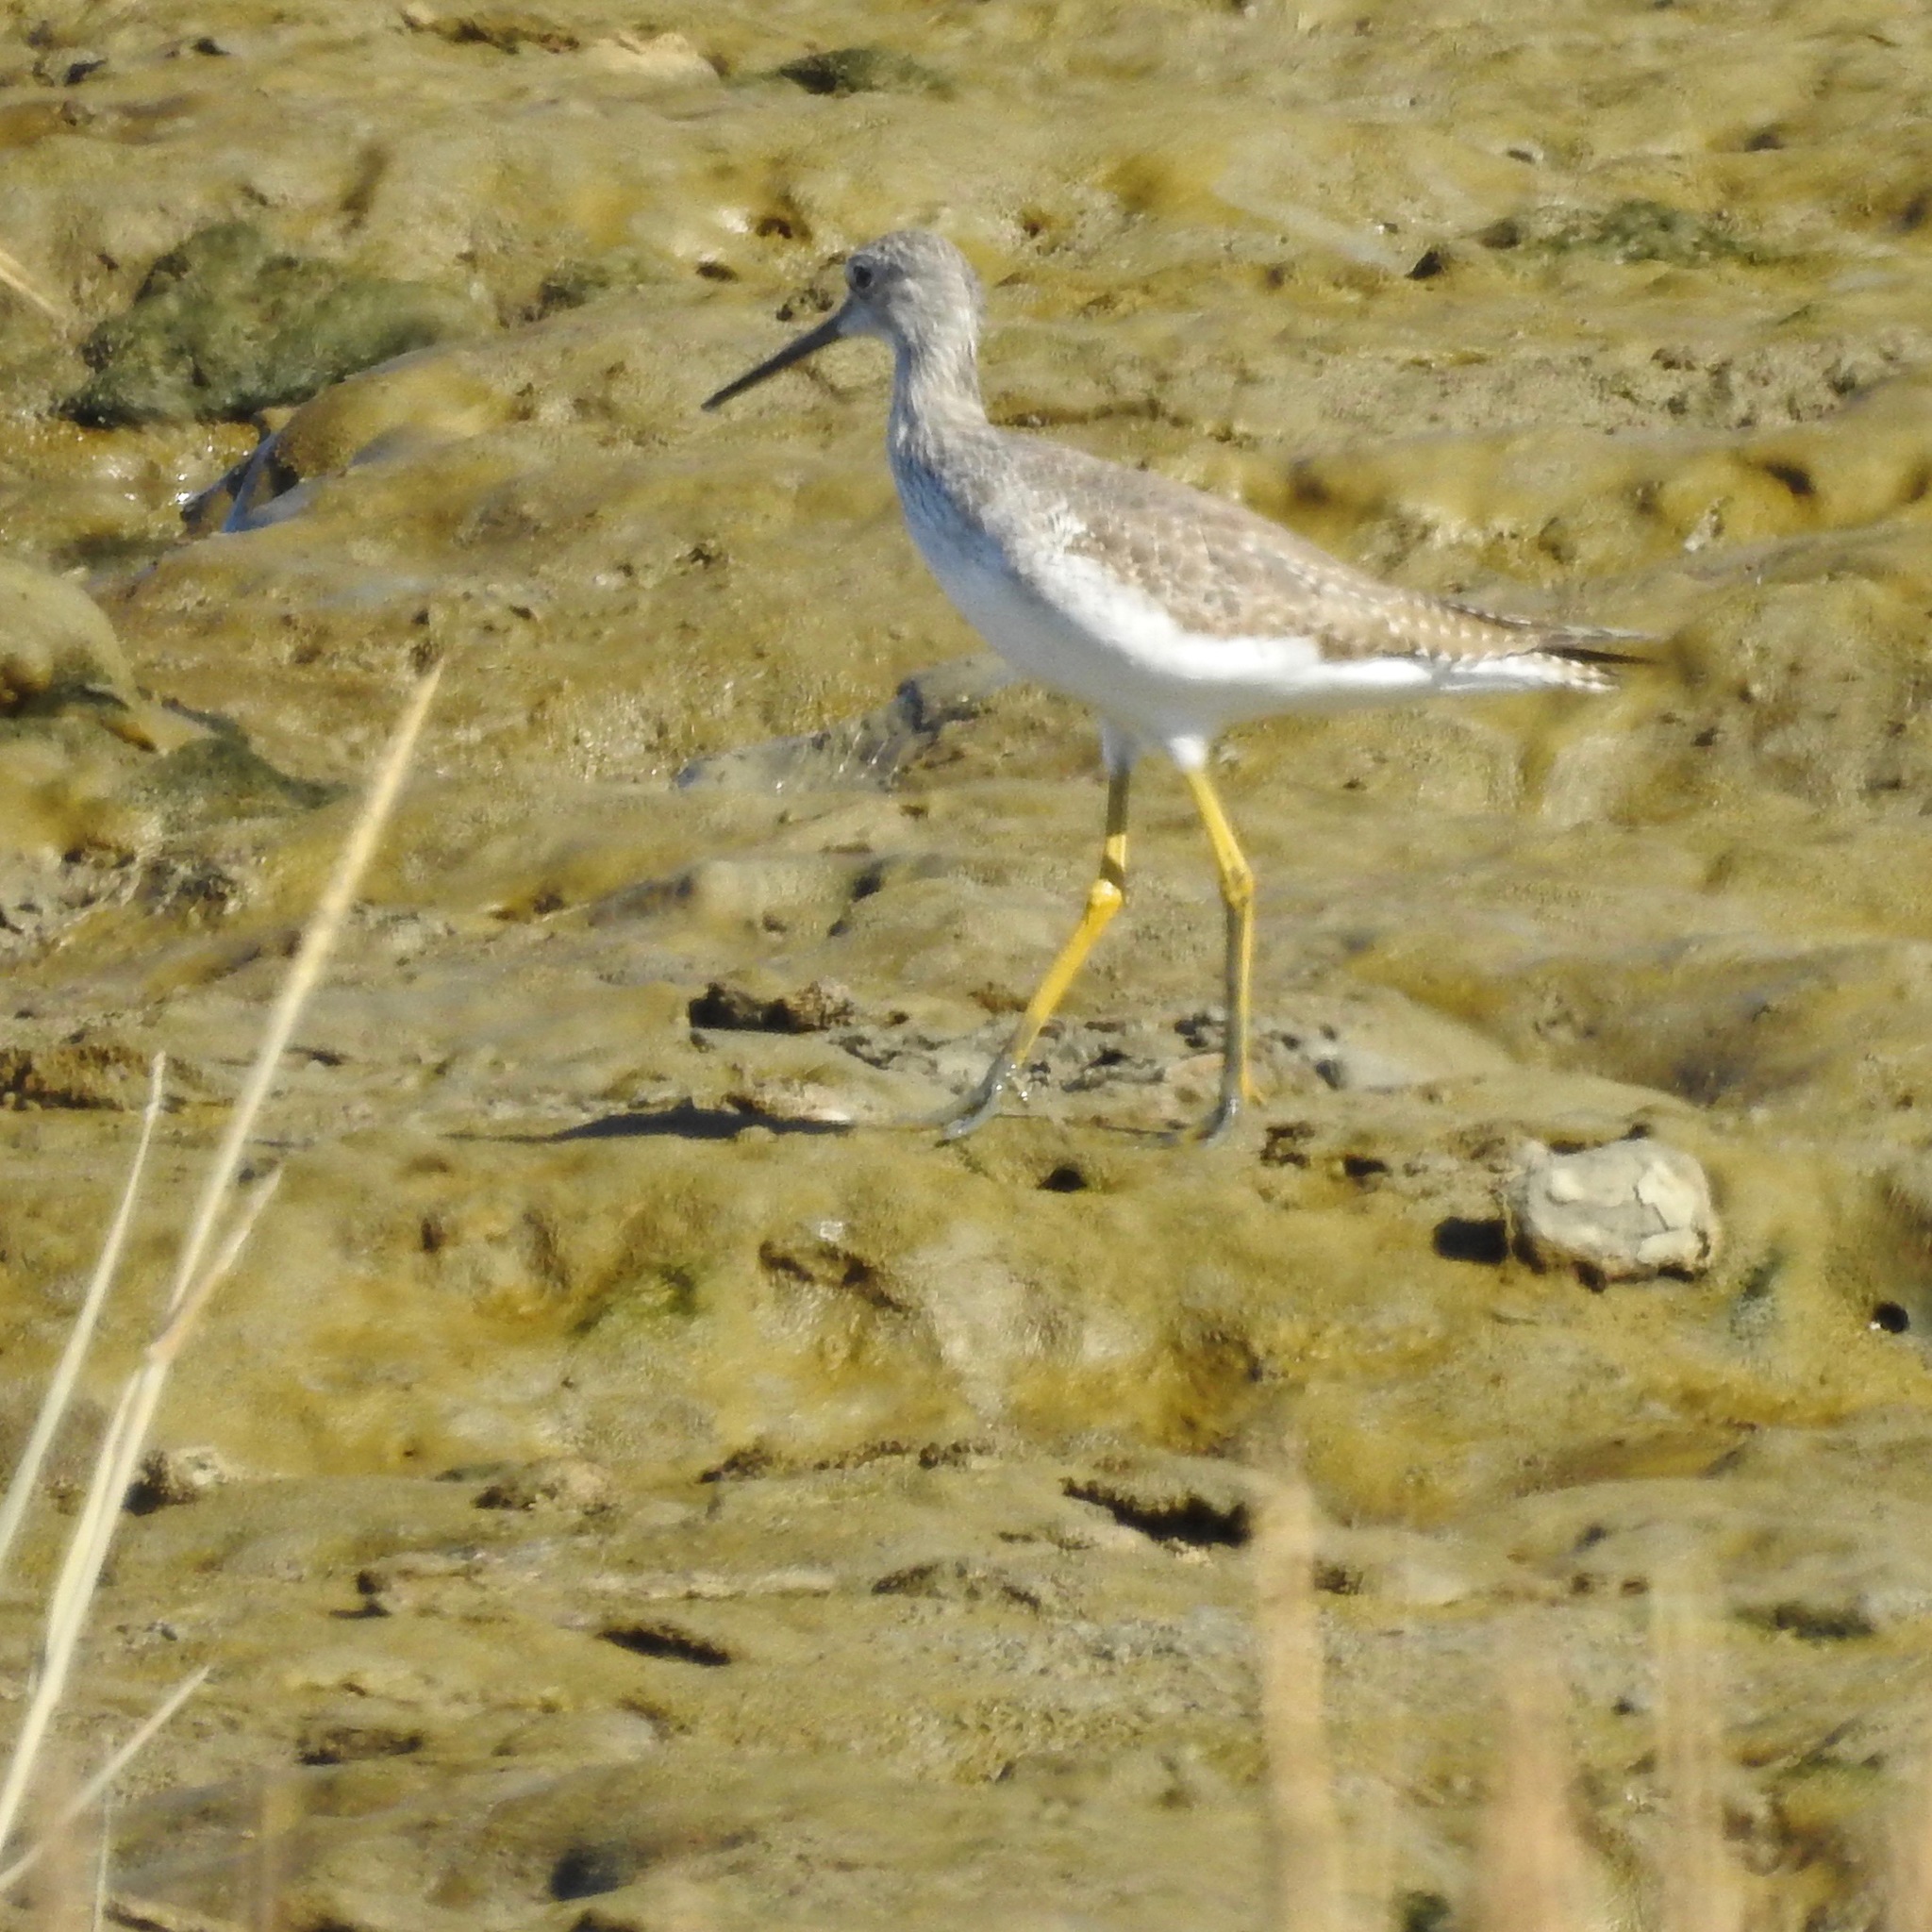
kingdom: Animalia
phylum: Chordata
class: Aves
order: Charadriiformes
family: Scolopacidae
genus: Tringa
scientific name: Tringa melanoleuca
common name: Greater yellowlegs
